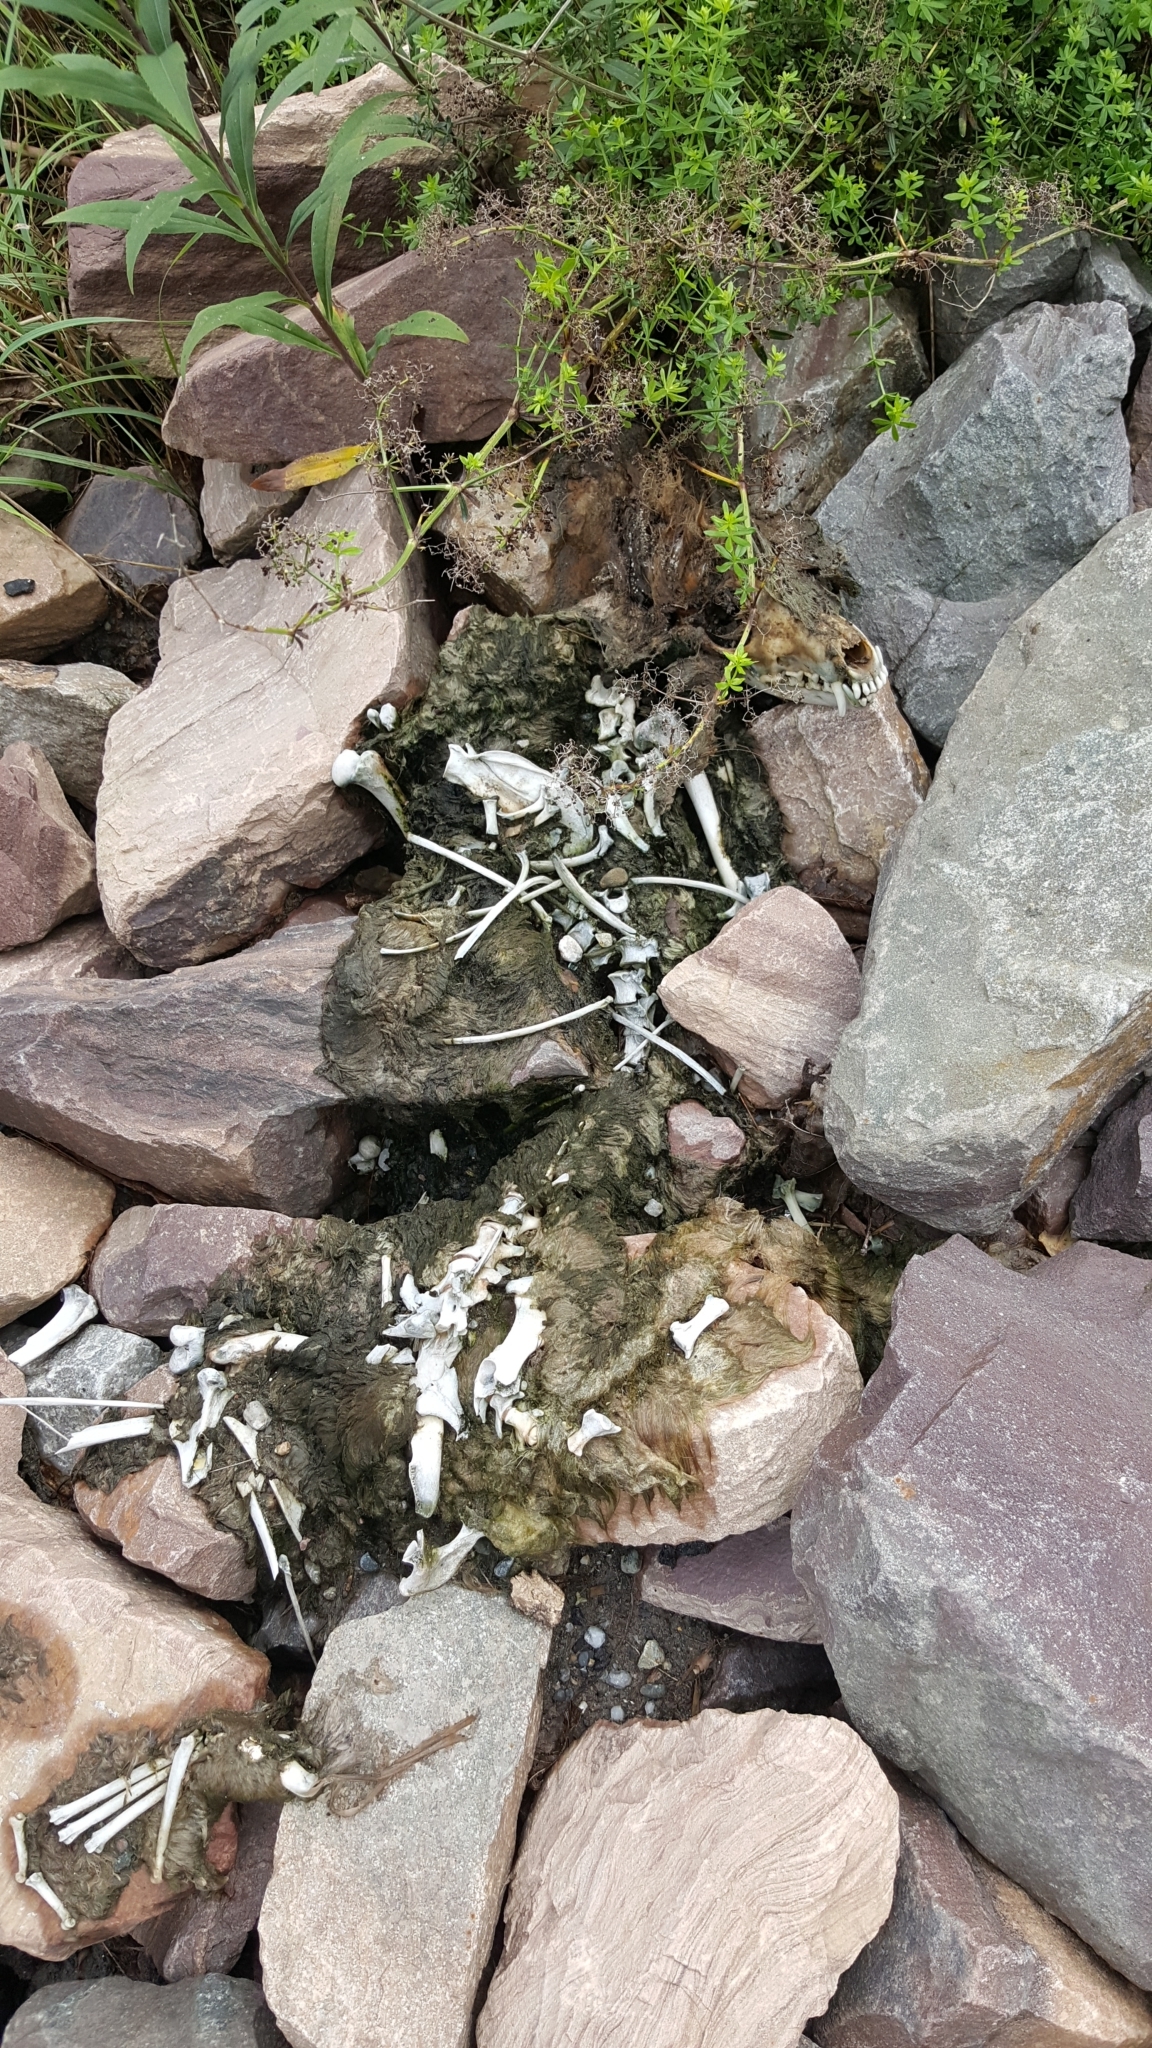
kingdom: Animalia
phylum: Chordata
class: Mammalia
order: Carnivora
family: Procyonidae
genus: Procyon
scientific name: Procyon lotor
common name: Raccoon
